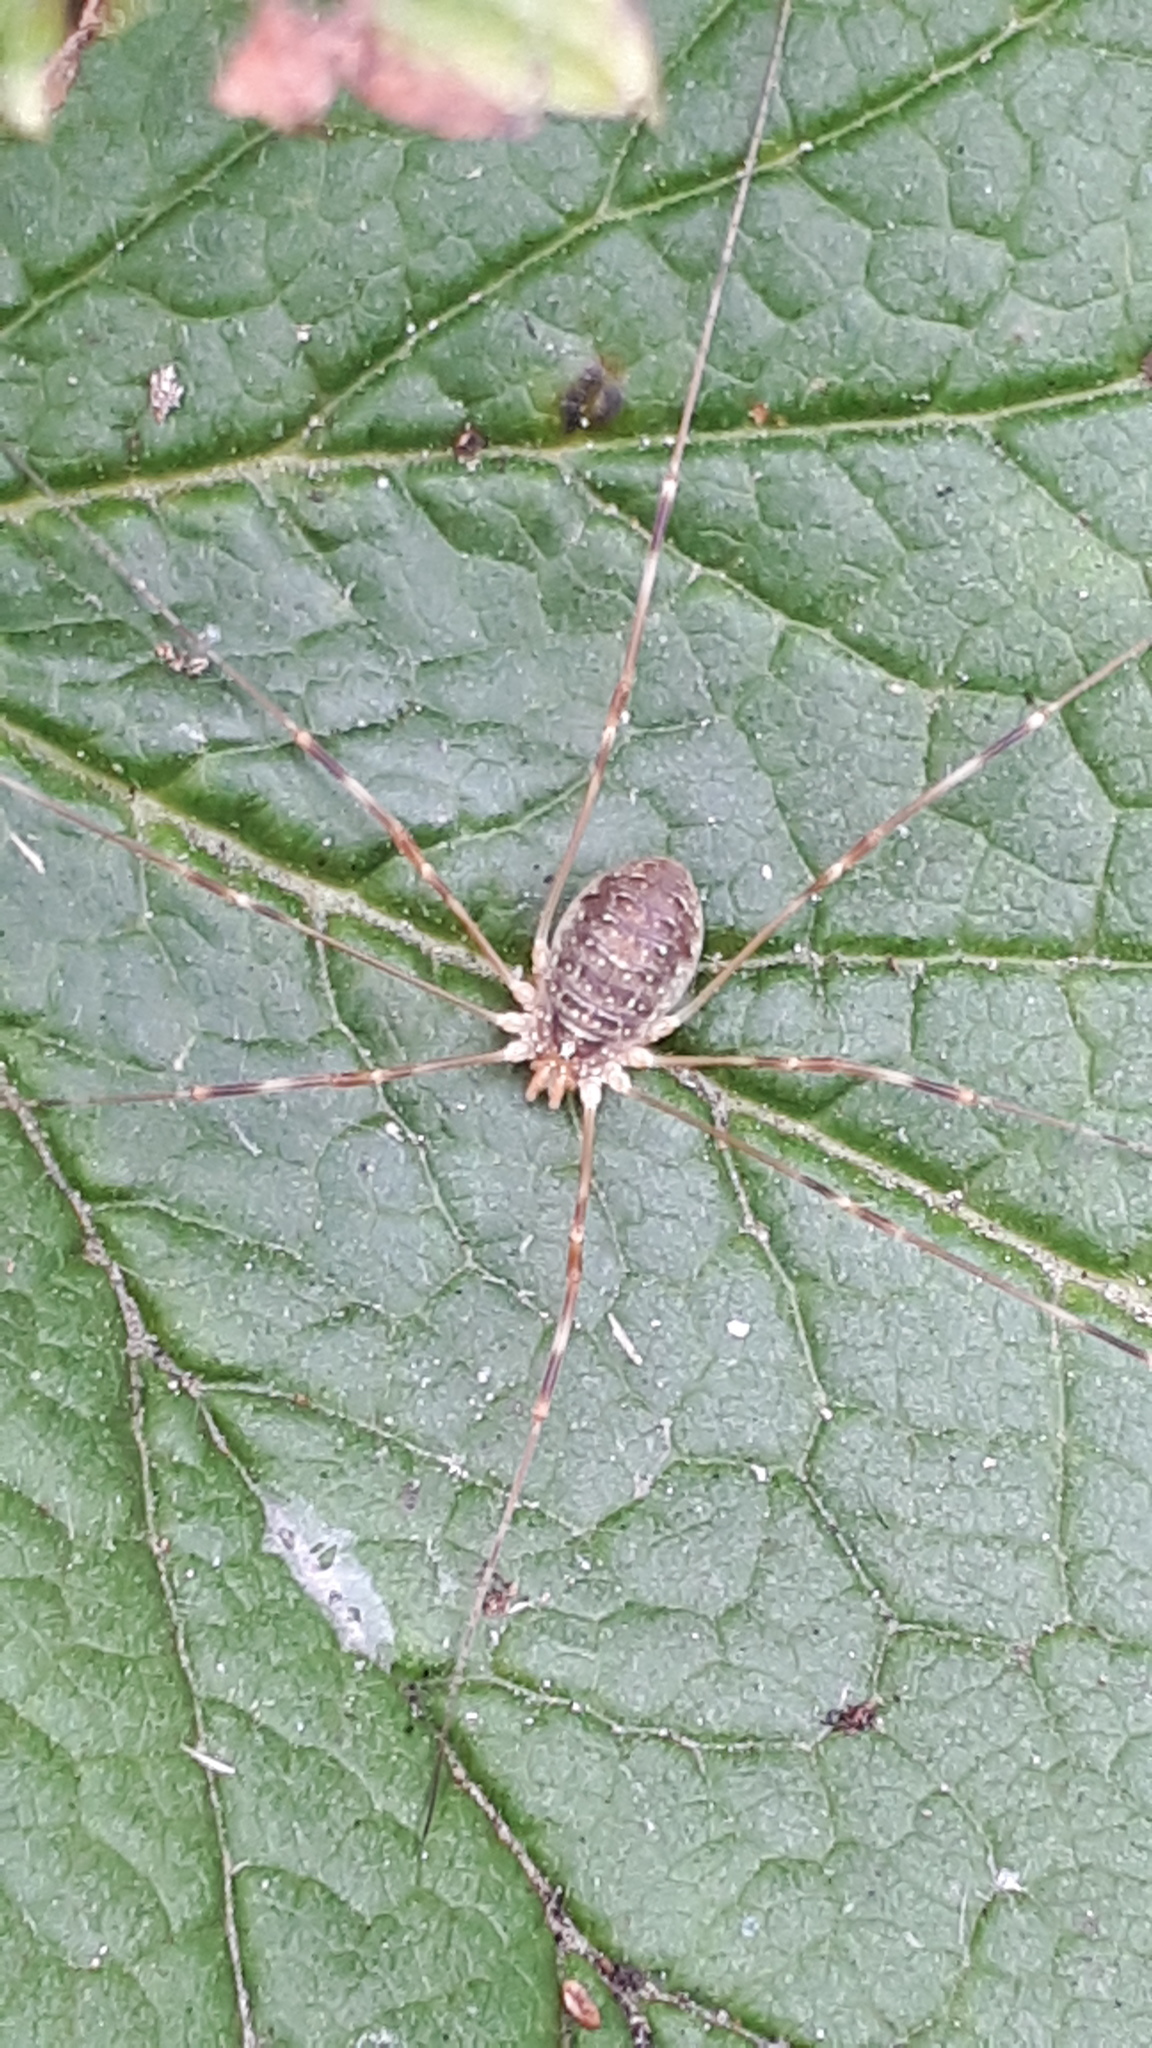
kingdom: Animalia
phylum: Arthropoda
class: Arachnida
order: Opiliones
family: Phalangiidae
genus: Opilio
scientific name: Opilio canestrinii
